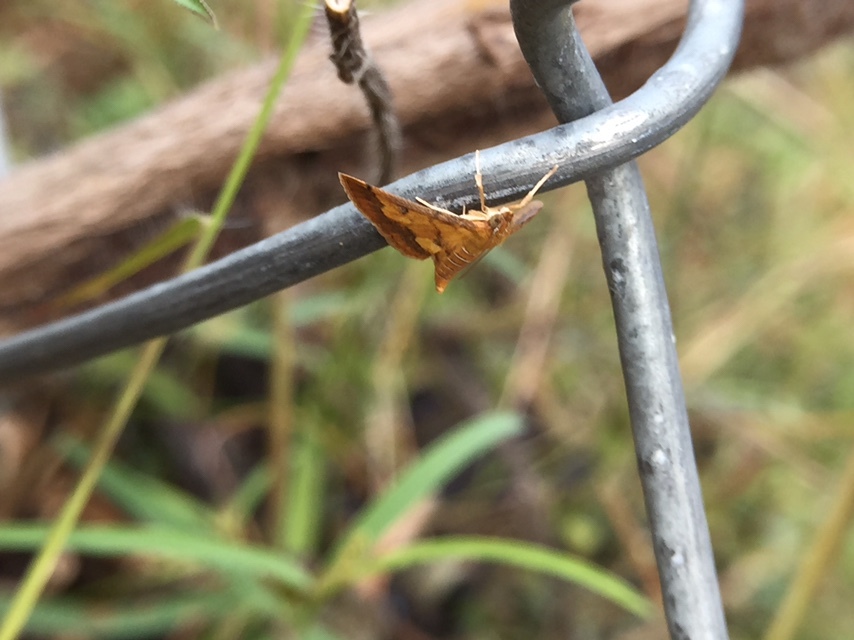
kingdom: Animalia
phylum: Arthropoda
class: Insecta
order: Lepidoptera
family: Crambidae
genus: Ischnurges
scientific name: Ischnurges luteomarginalis
